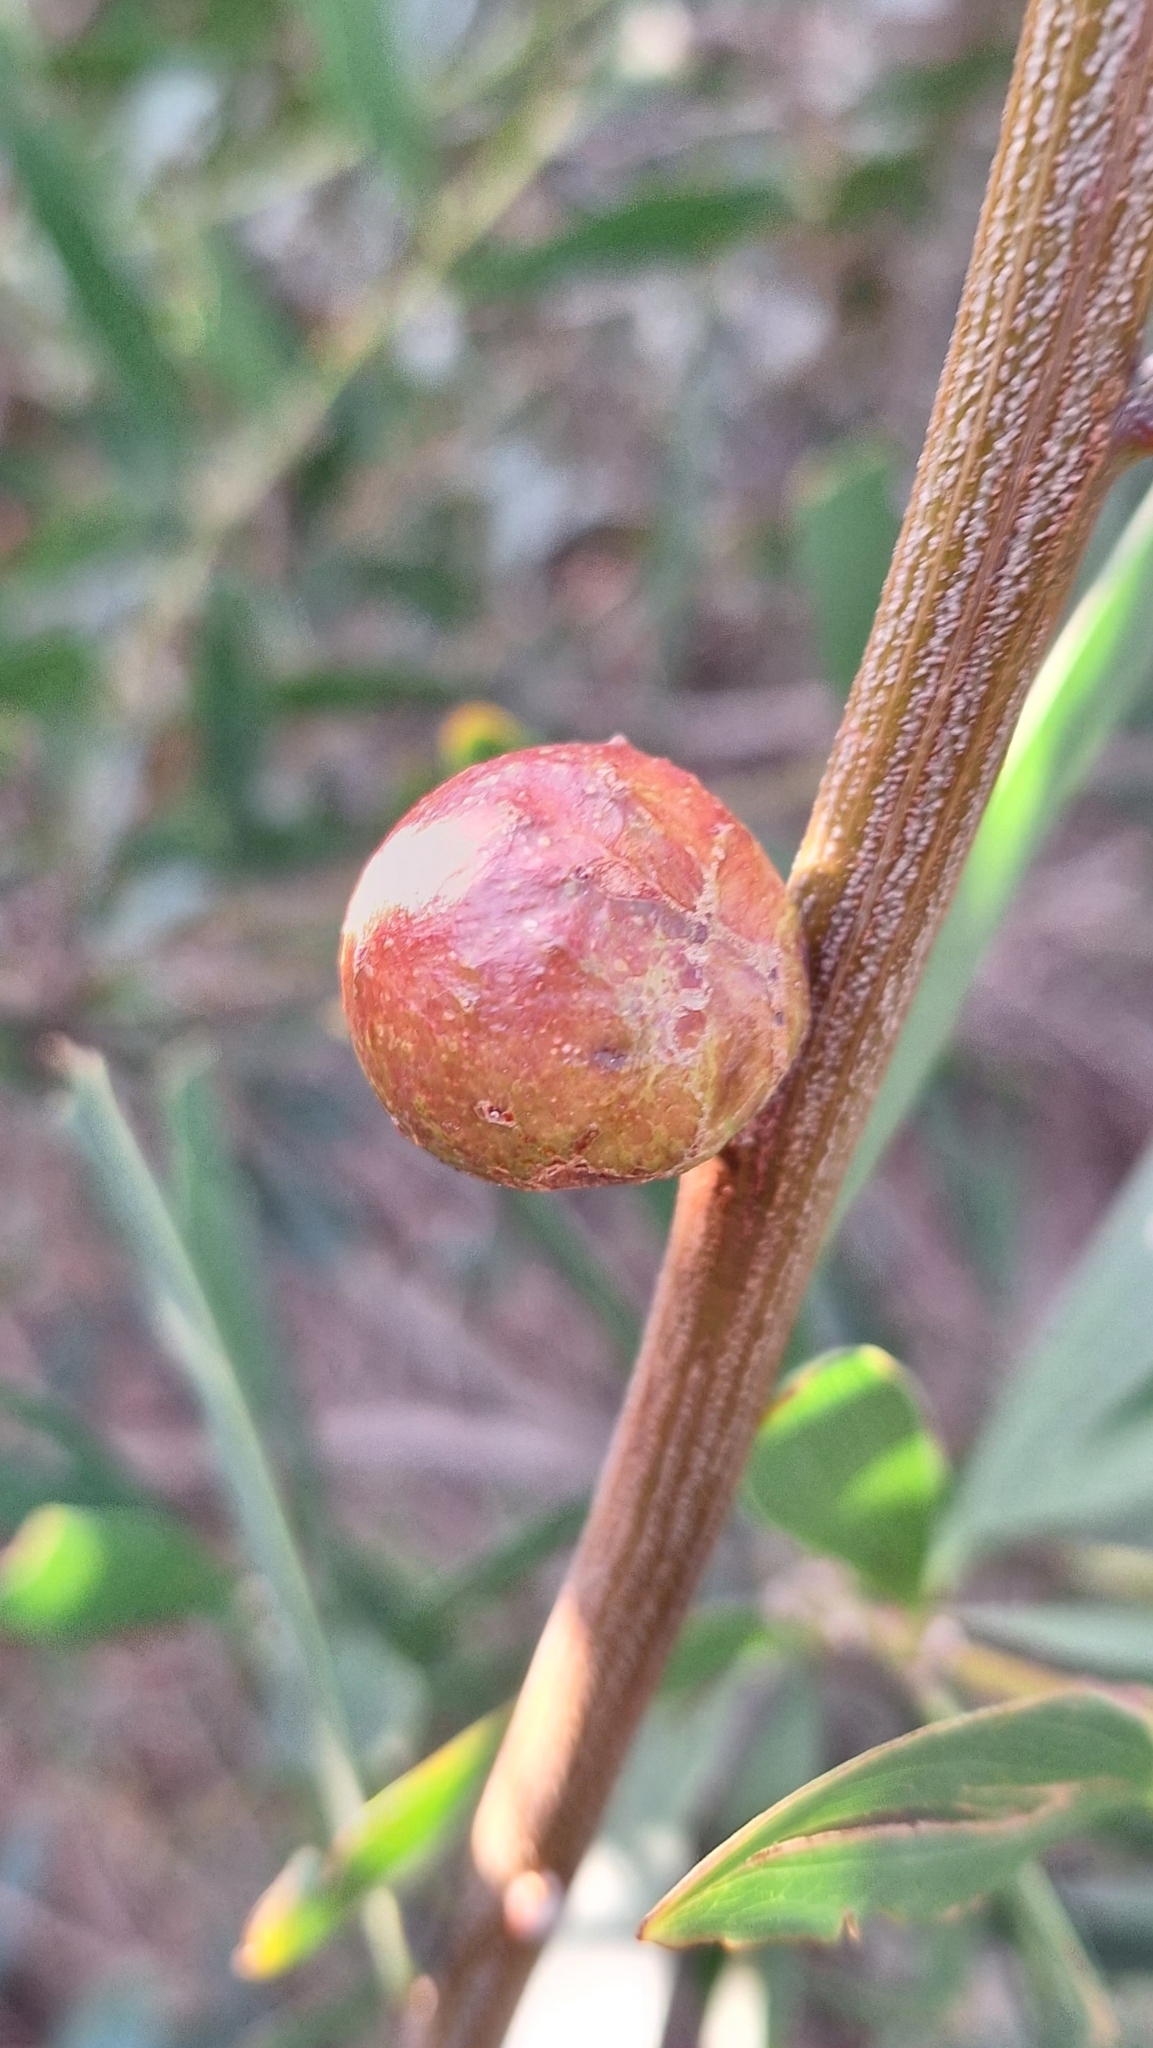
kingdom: Animalia
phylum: Arthropoda
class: Insecta
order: Hymenoptera
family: Pteromalidae
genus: Trichilogaster
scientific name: Trichilogaster acaciaelongifoliae
